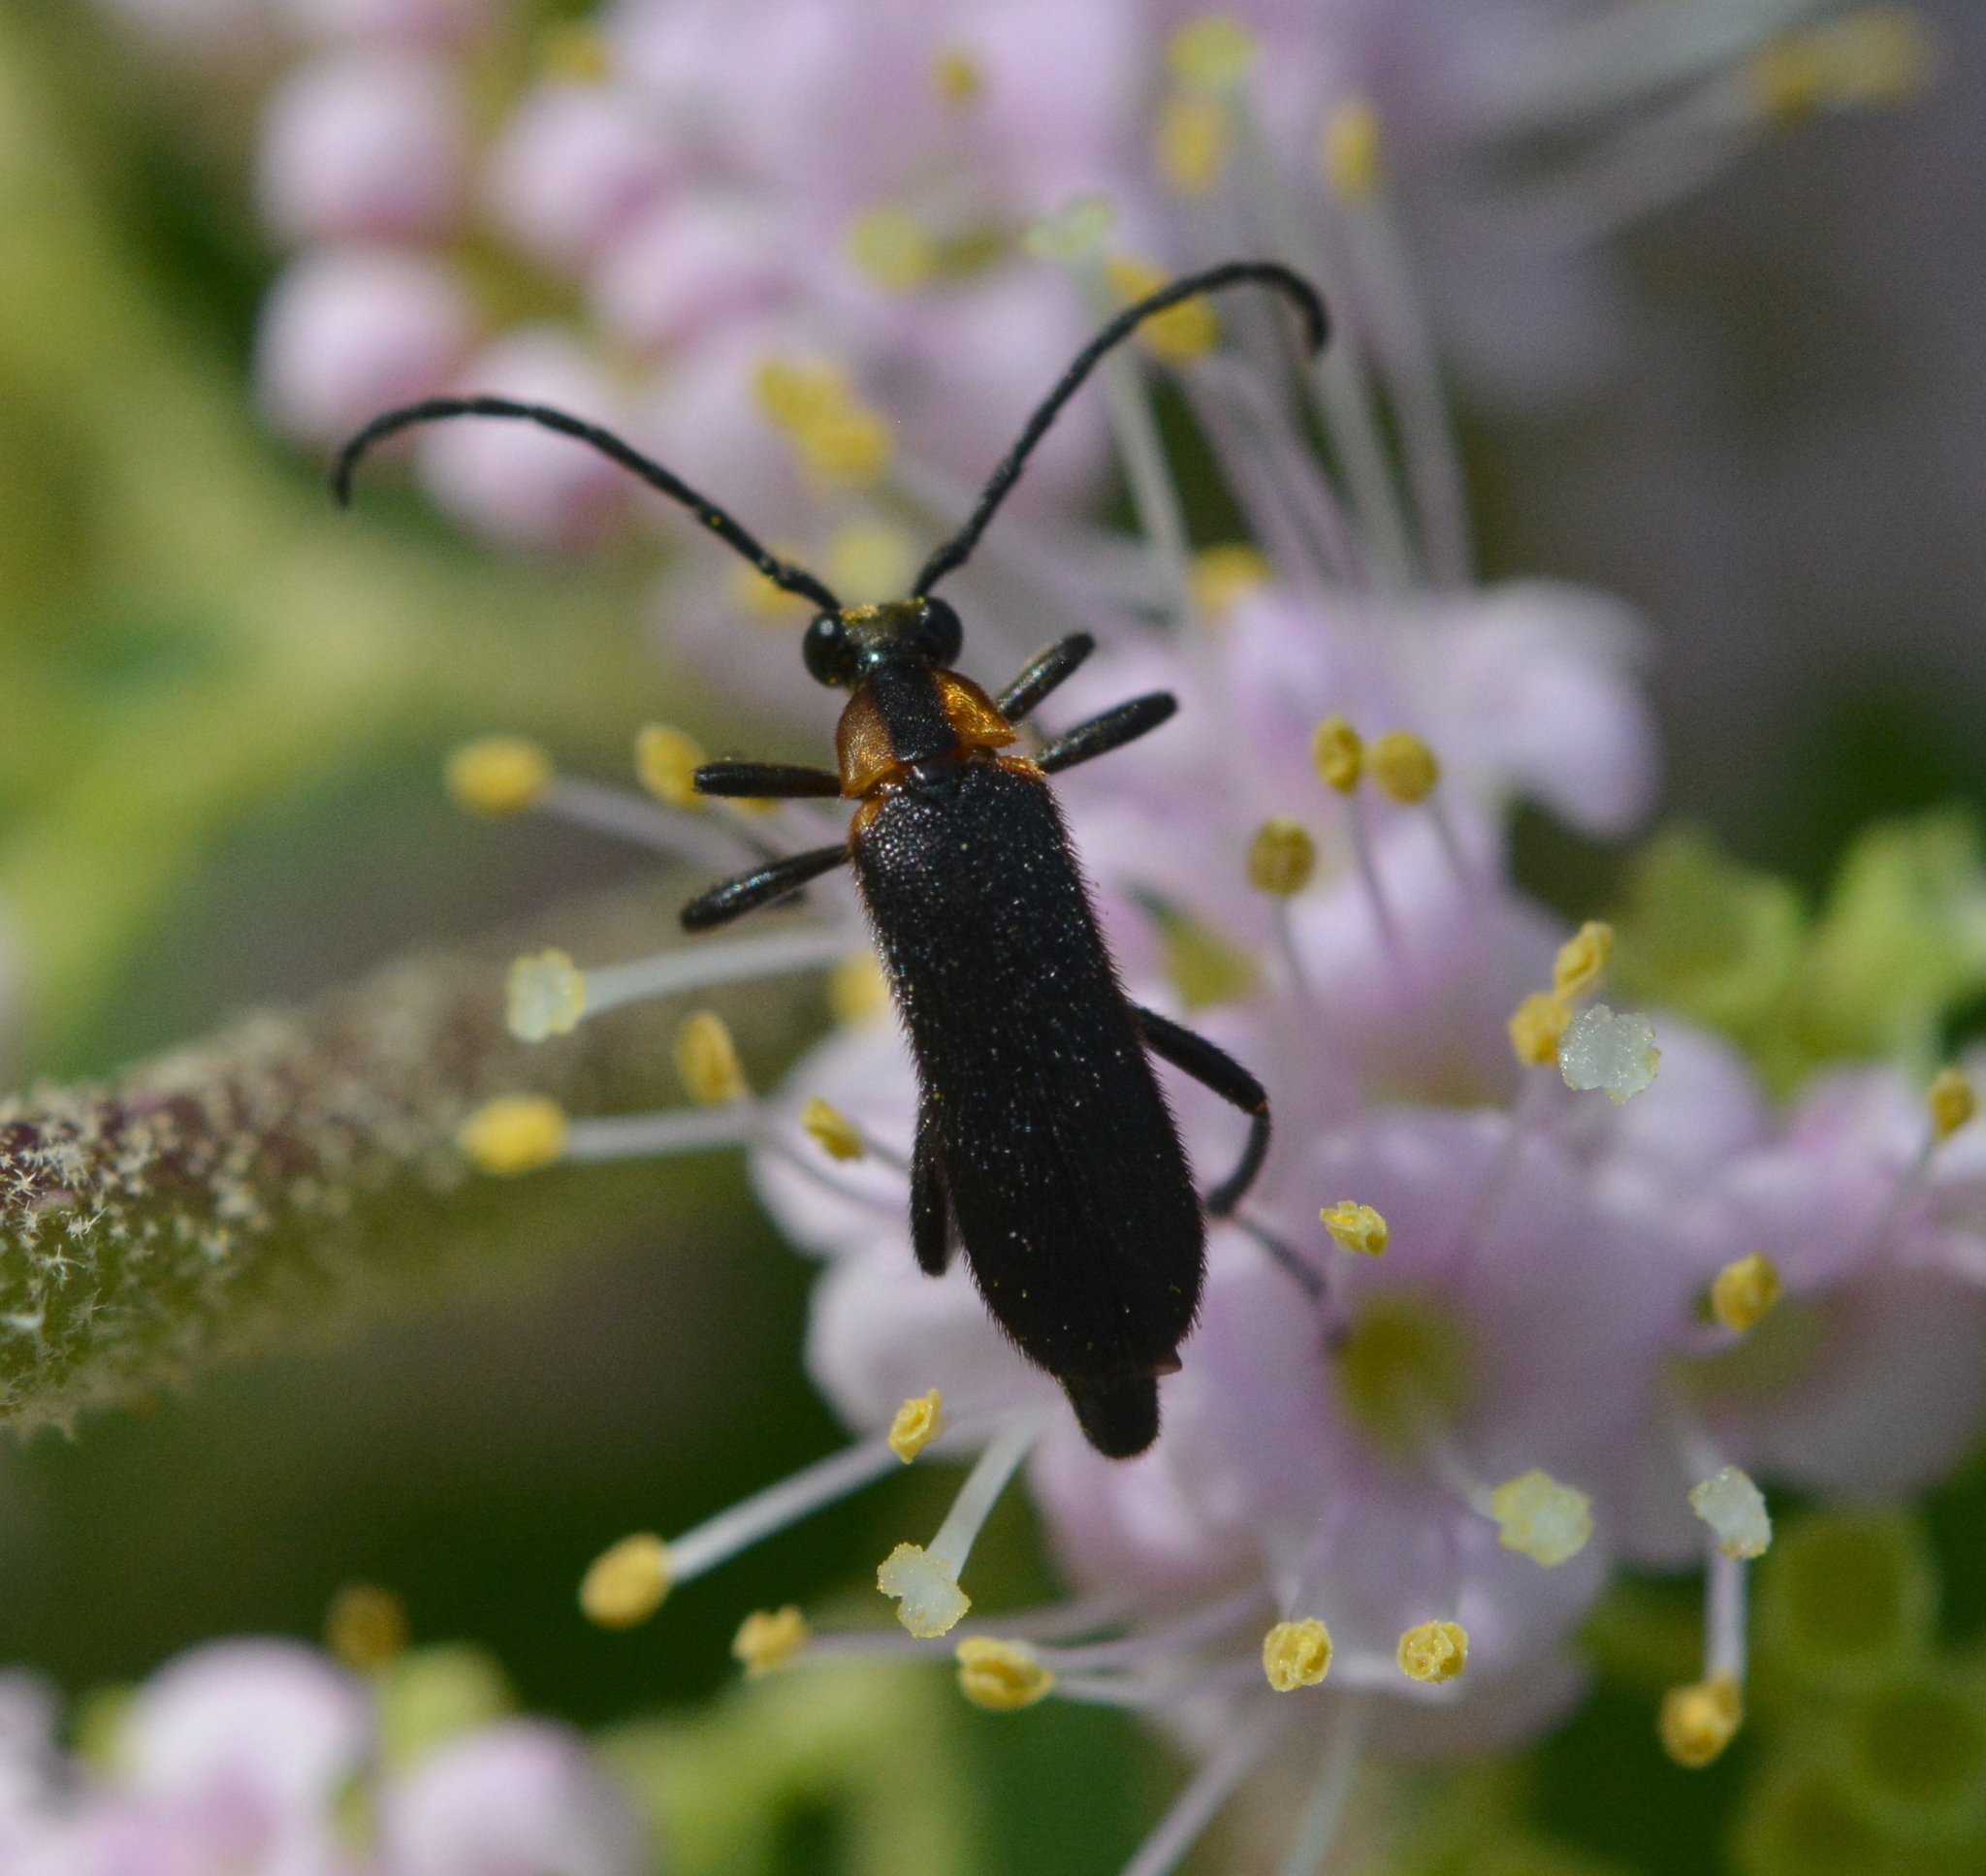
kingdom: Animalia
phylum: Arthropoda
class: Insecta
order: Coleoptera
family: Cerambycidae
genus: Lycochoriolaus
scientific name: Lycochoriolaus lateralis
